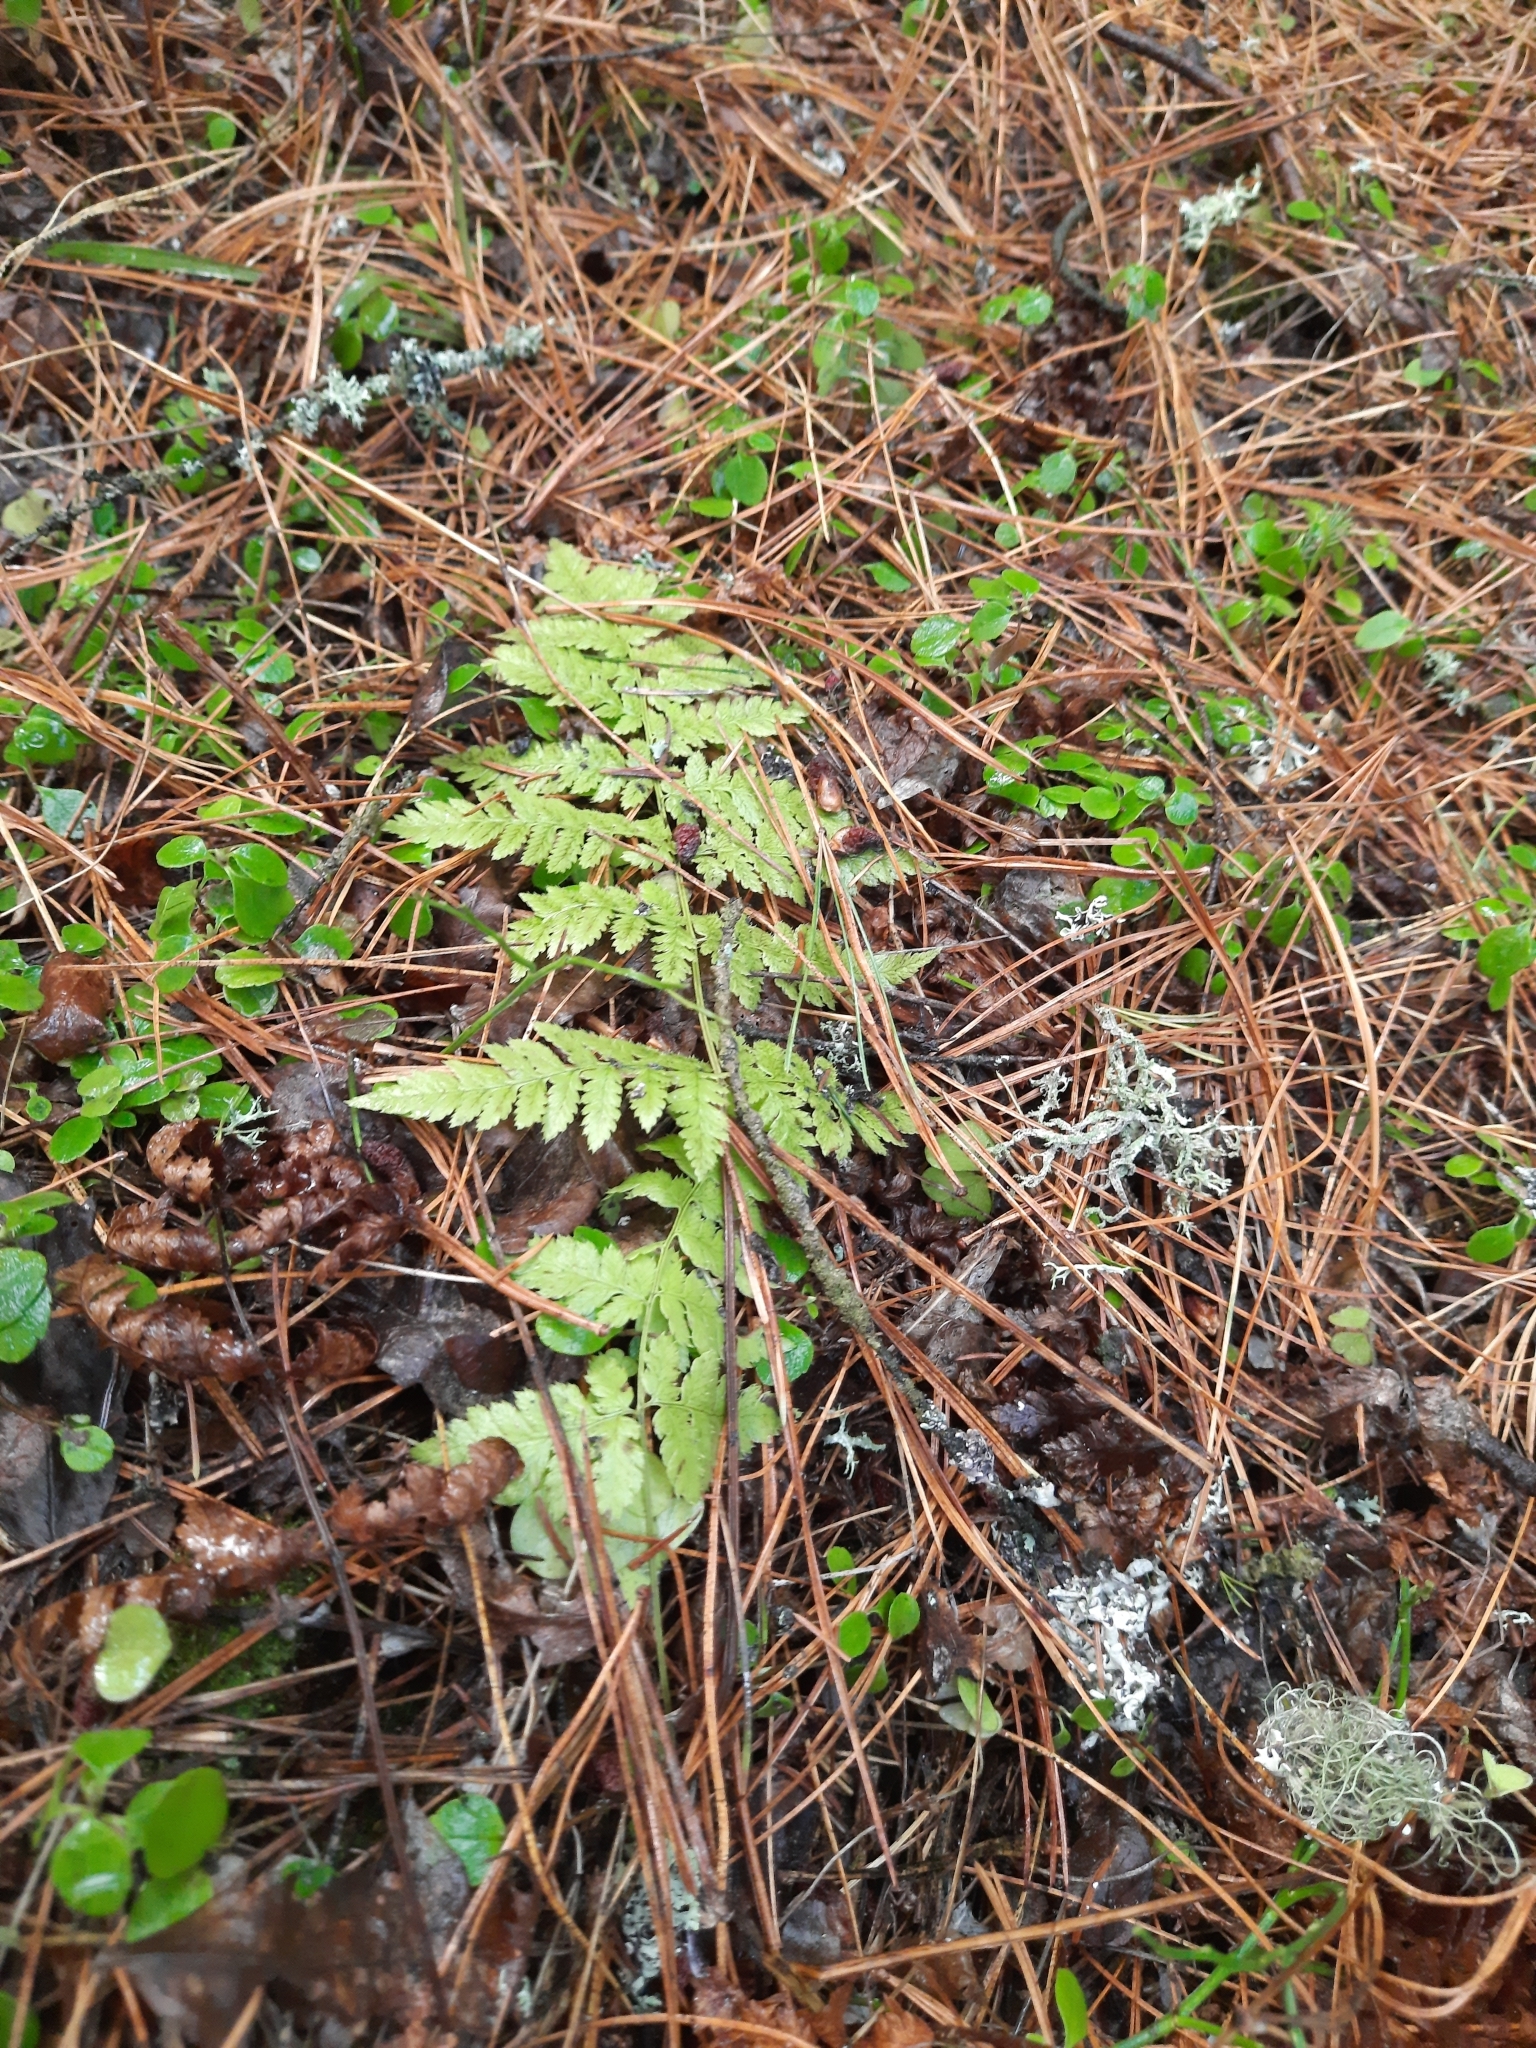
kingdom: Plantae
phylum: Tracheophyta
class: Polypodiopsida
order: Polypodiales
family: Dryopteridaceae
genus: Dryopteris
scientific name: Dryopteris carthusiana
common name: Narrow buckler-fern
